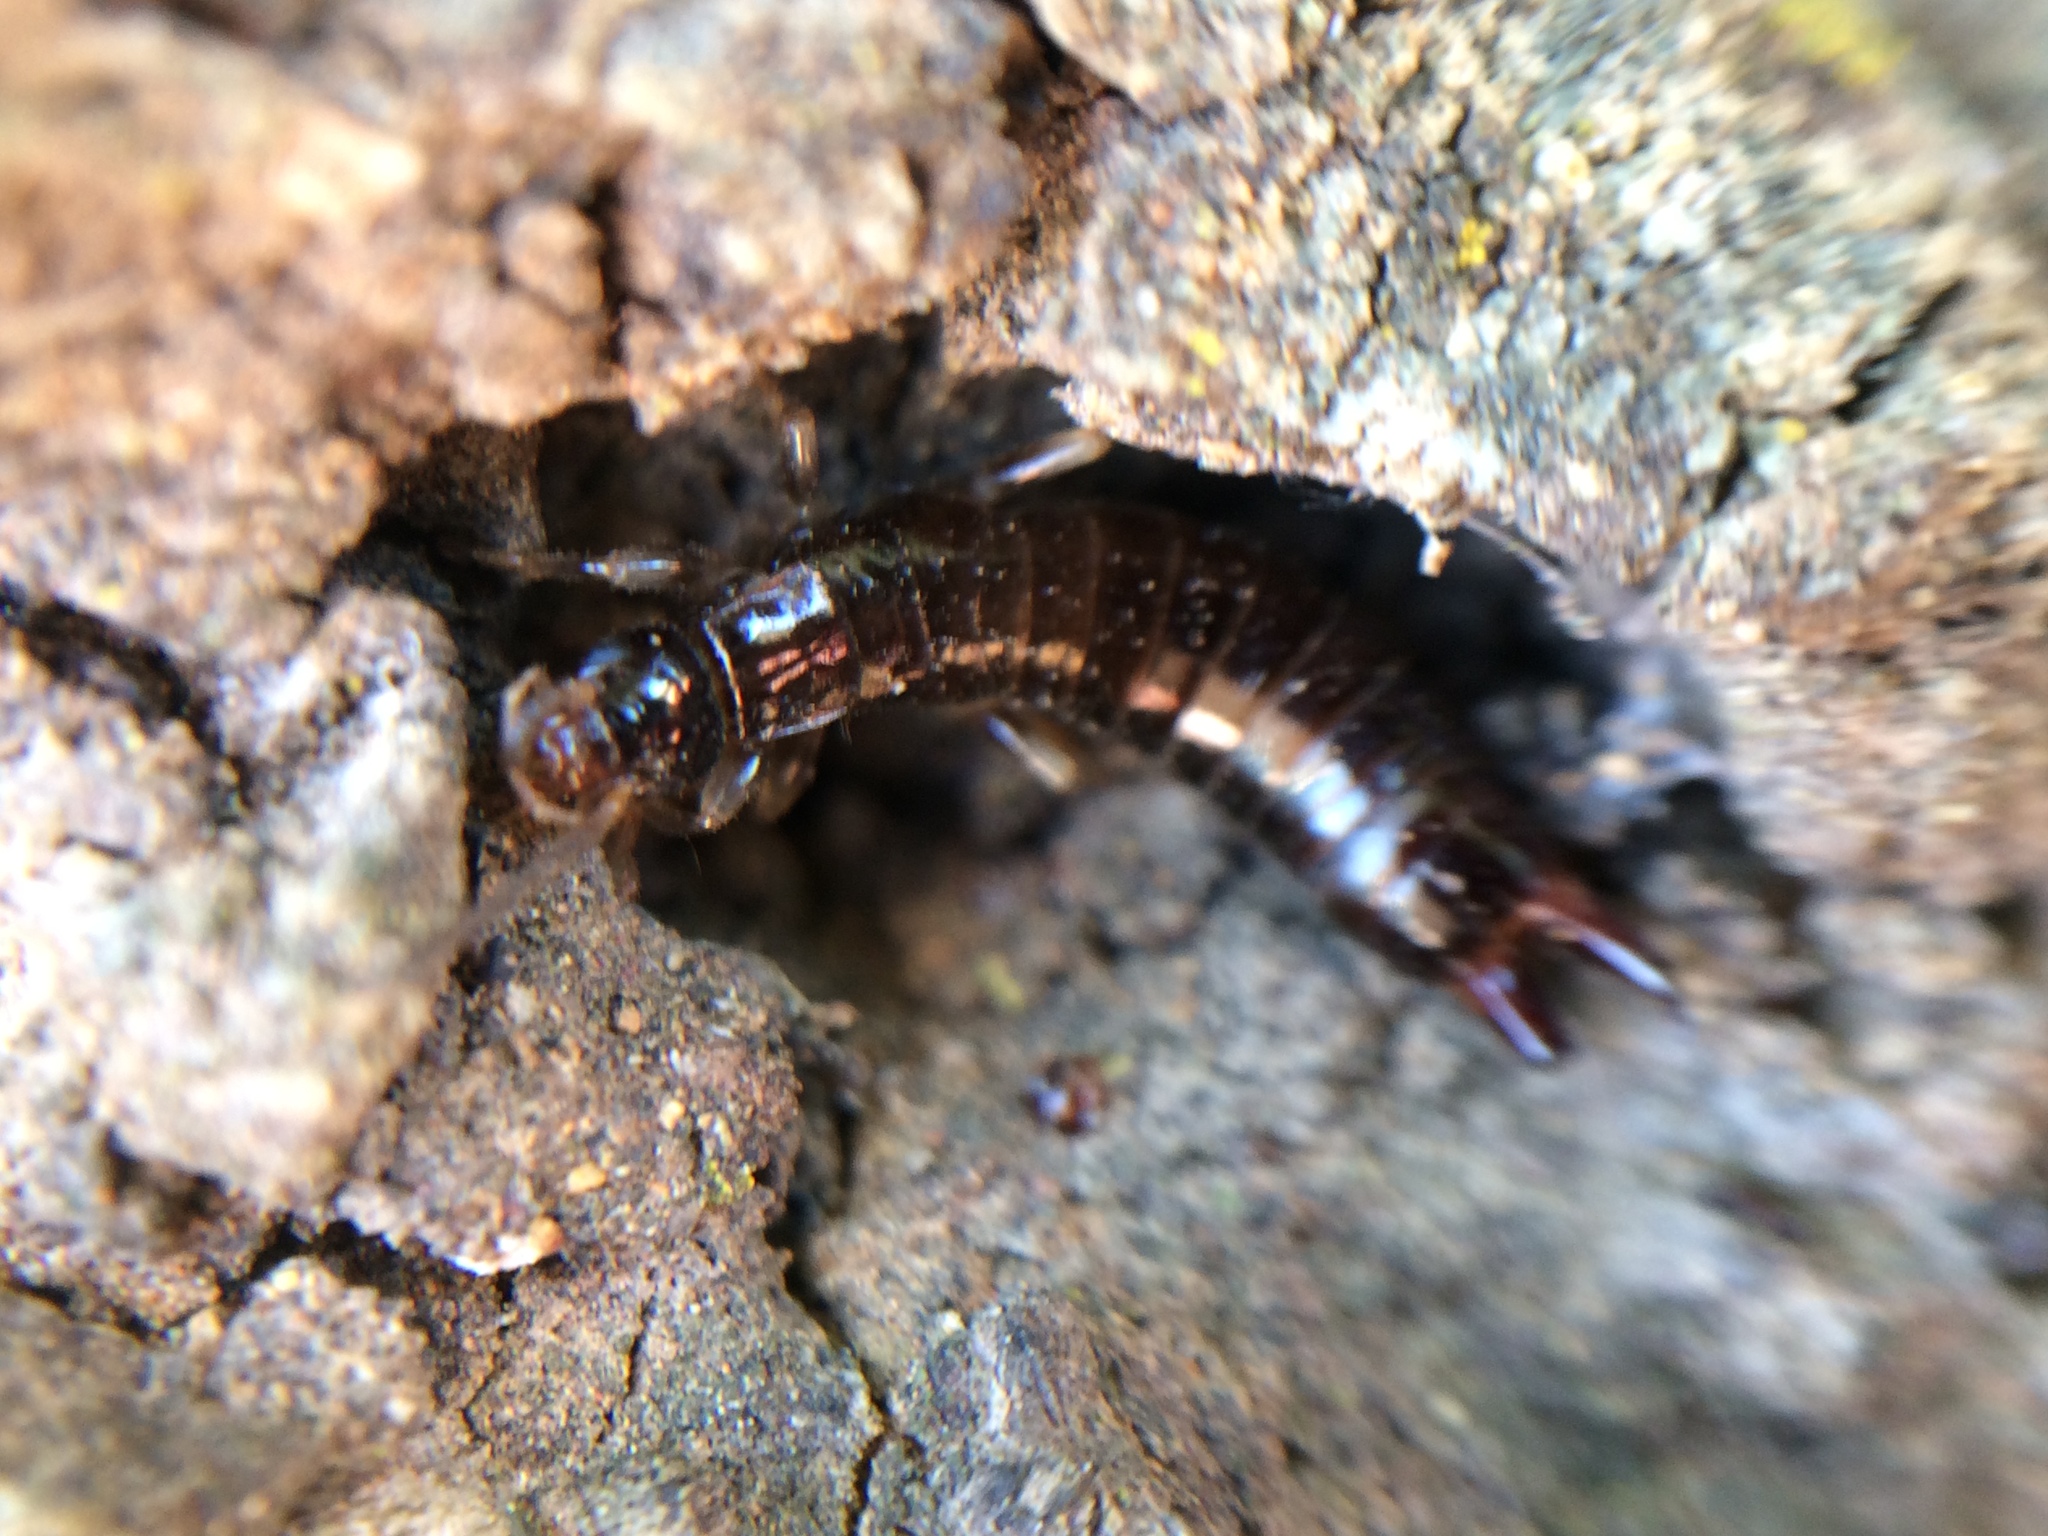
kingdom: Animalia
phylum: Arthropoda
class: Insecta
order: Dermaptera
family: Anisolabididae
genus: Euborellia
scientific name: Euborellia annulipes
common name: Ringlegged earwig
